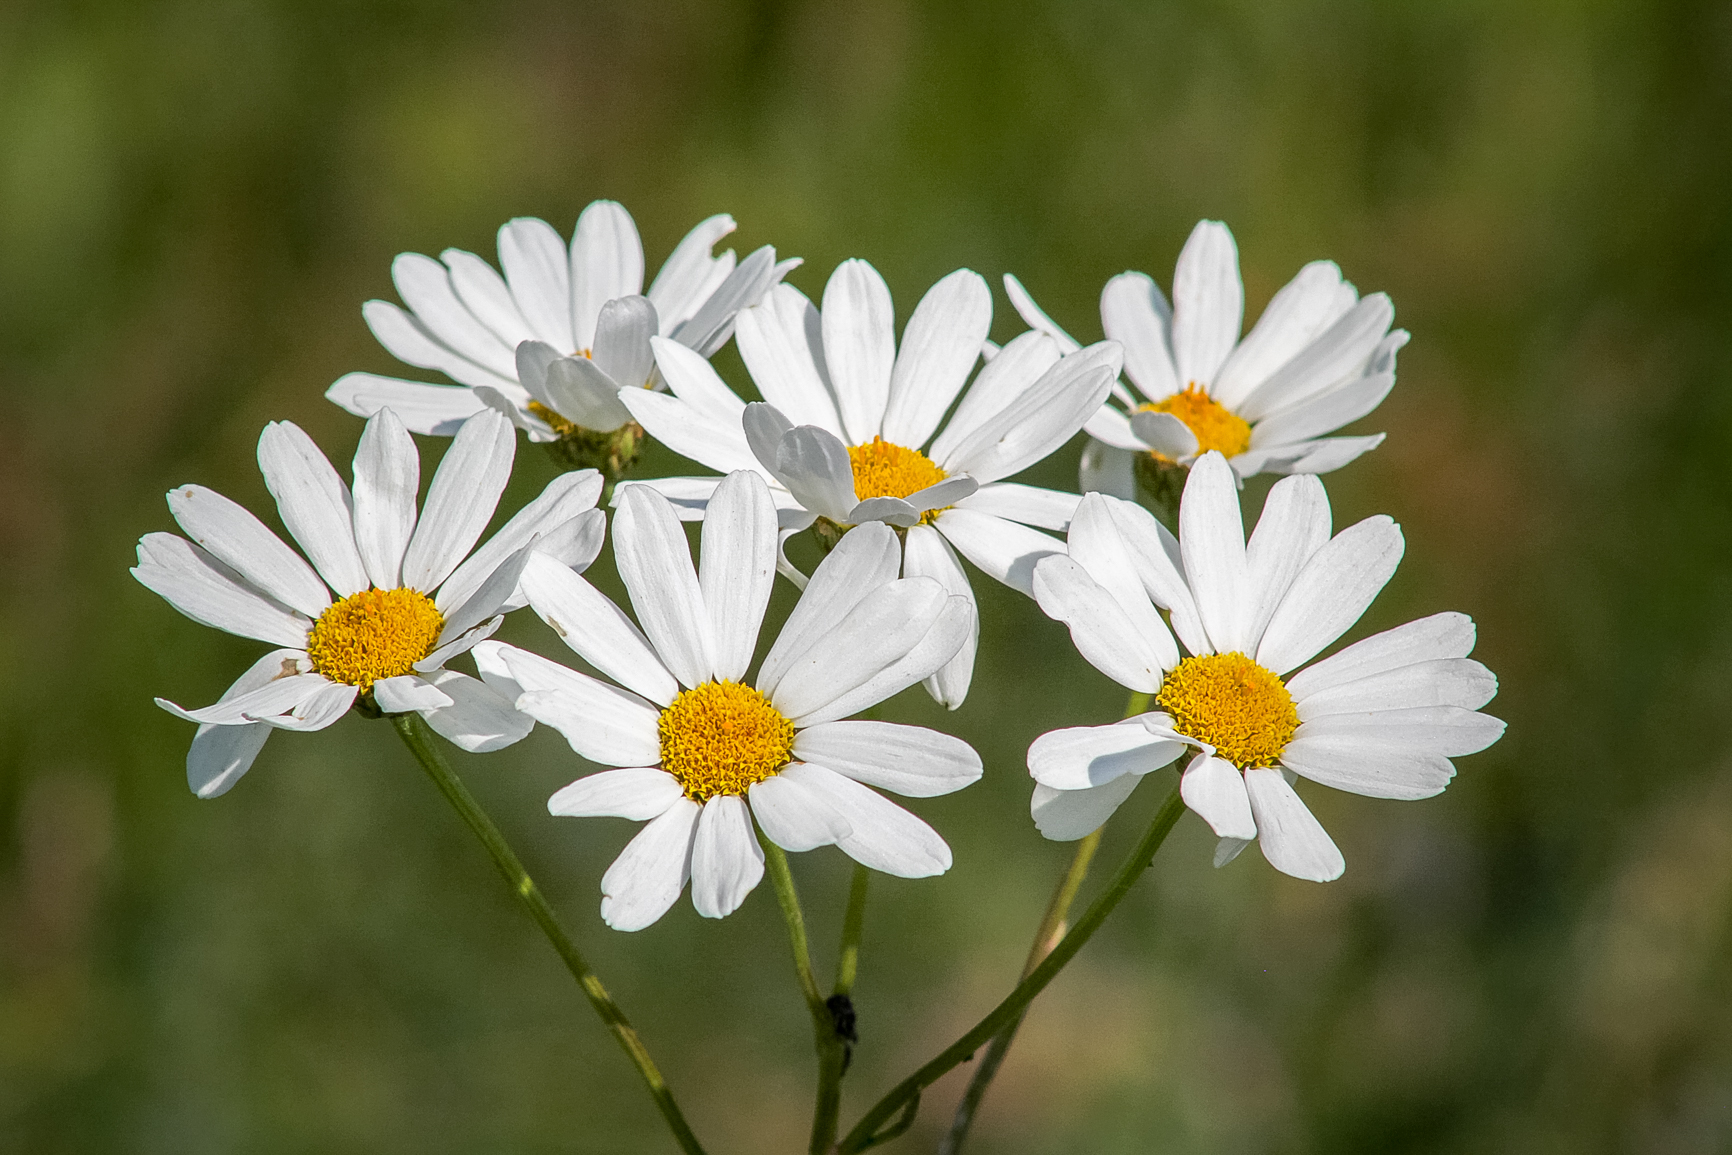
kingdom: Plantae
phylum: Tracheophyta
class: Magnoliopsida
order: Asterales
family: Asteraceae
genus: Tanacetum
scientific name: Tanacetum corymbosum
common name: Scentless feverfew
